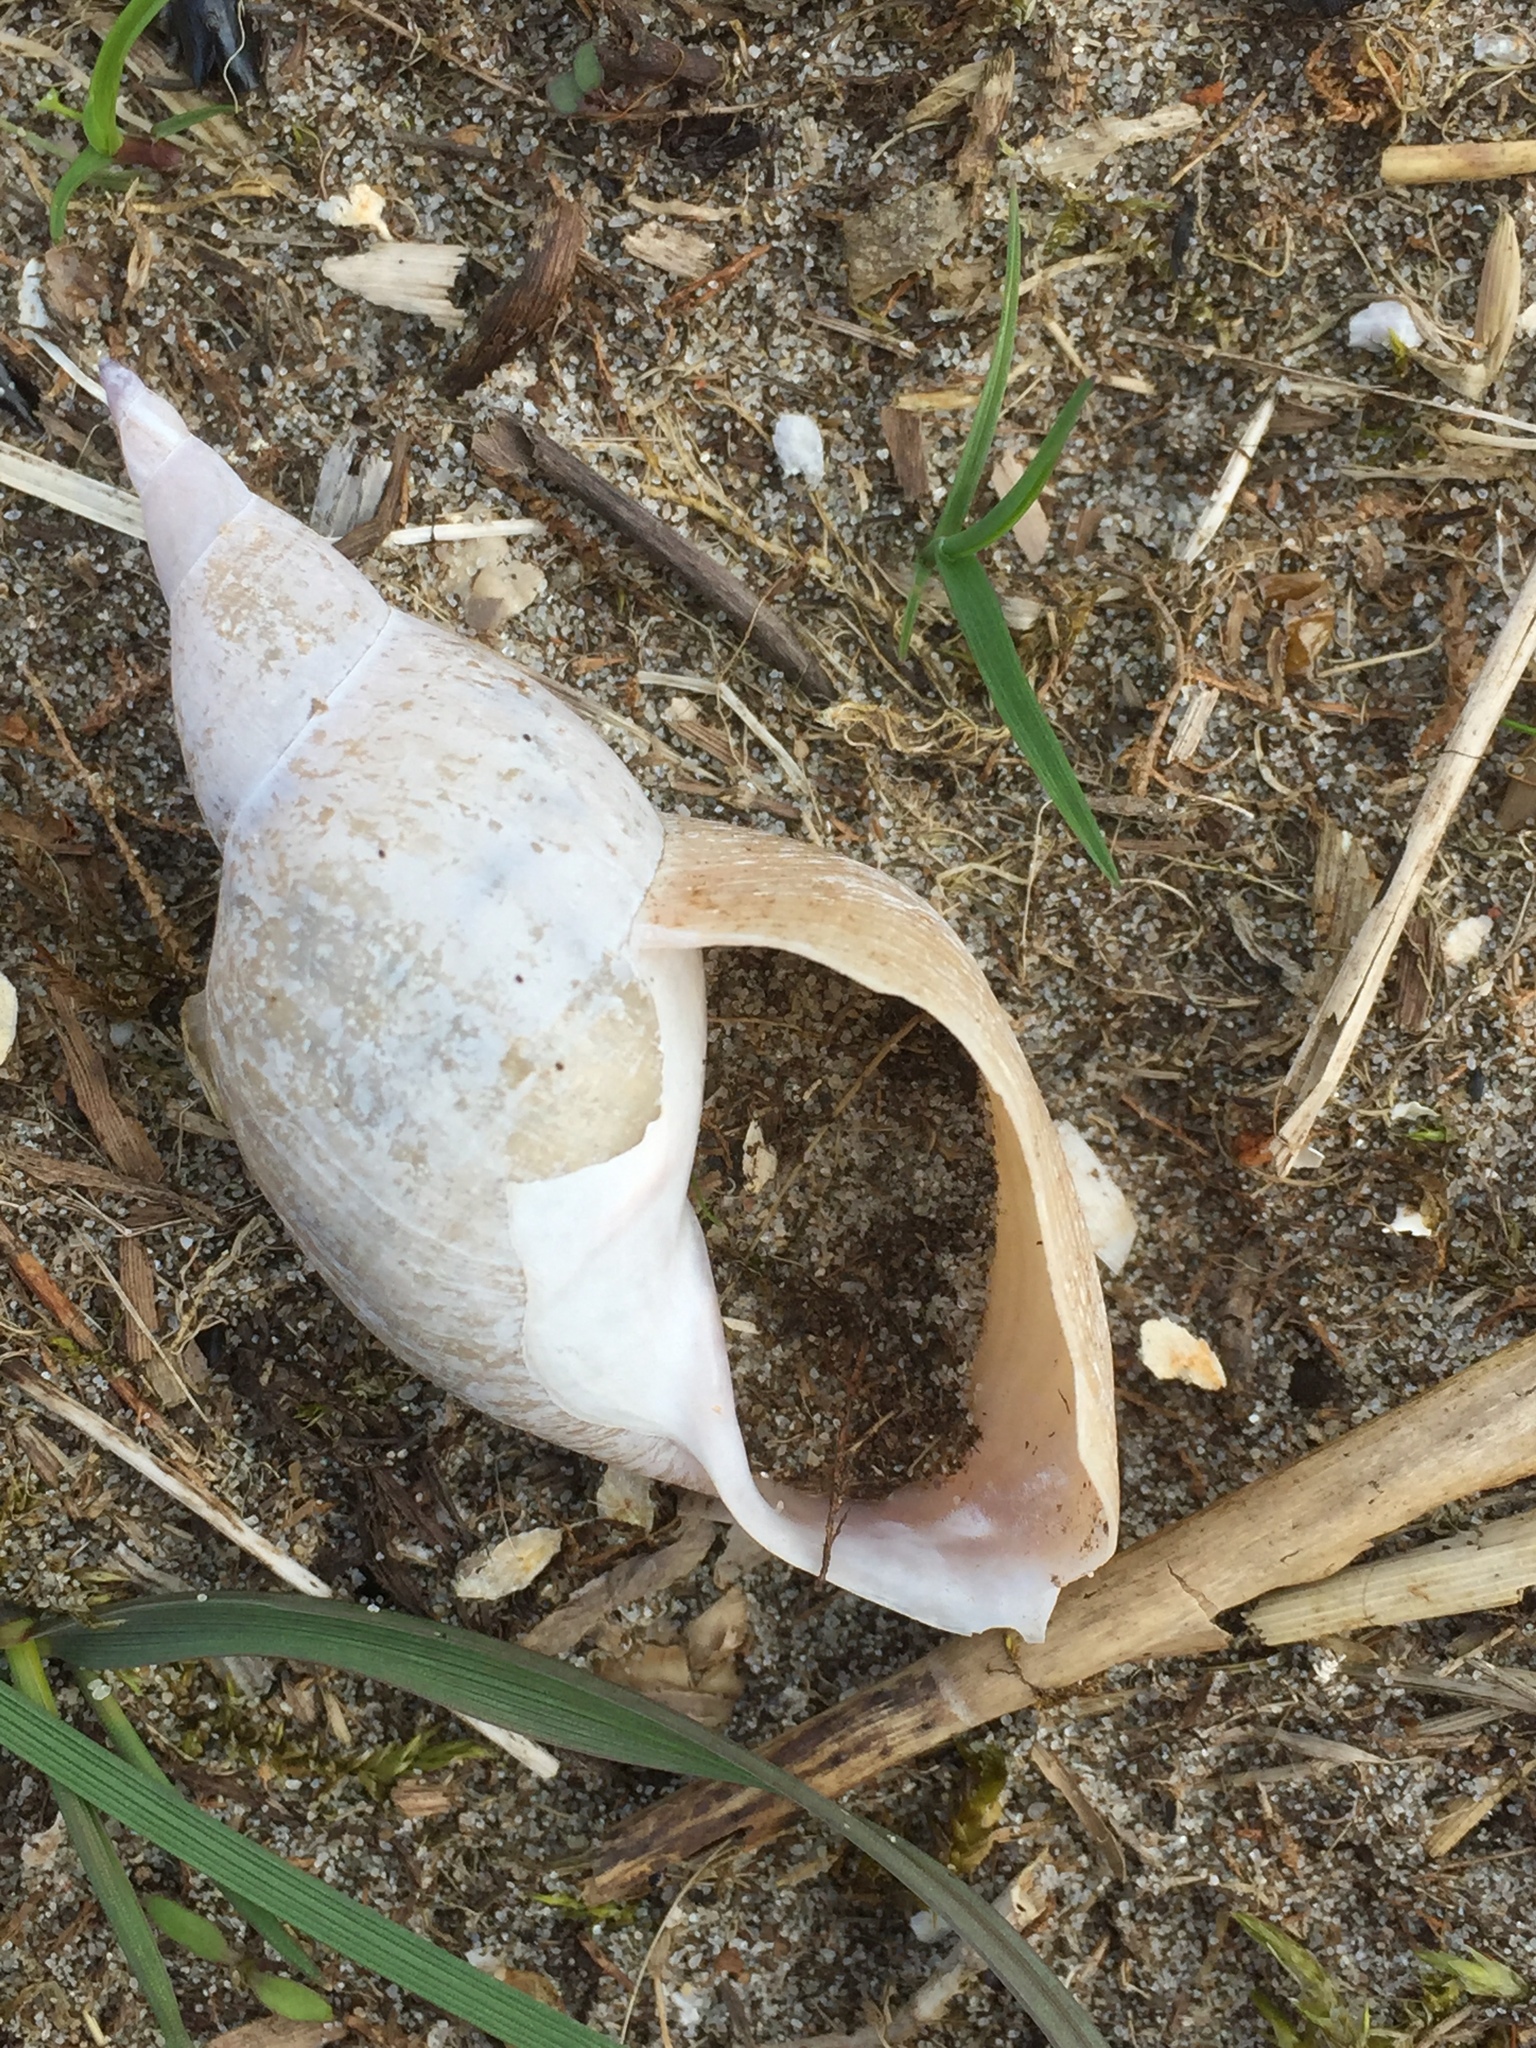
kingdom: Animalia
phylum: Mollusca
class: Gastropoda
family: Lymnaeidae
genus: Lymnaea
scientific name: Lymnaea stagnalis
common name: Great pond snail
